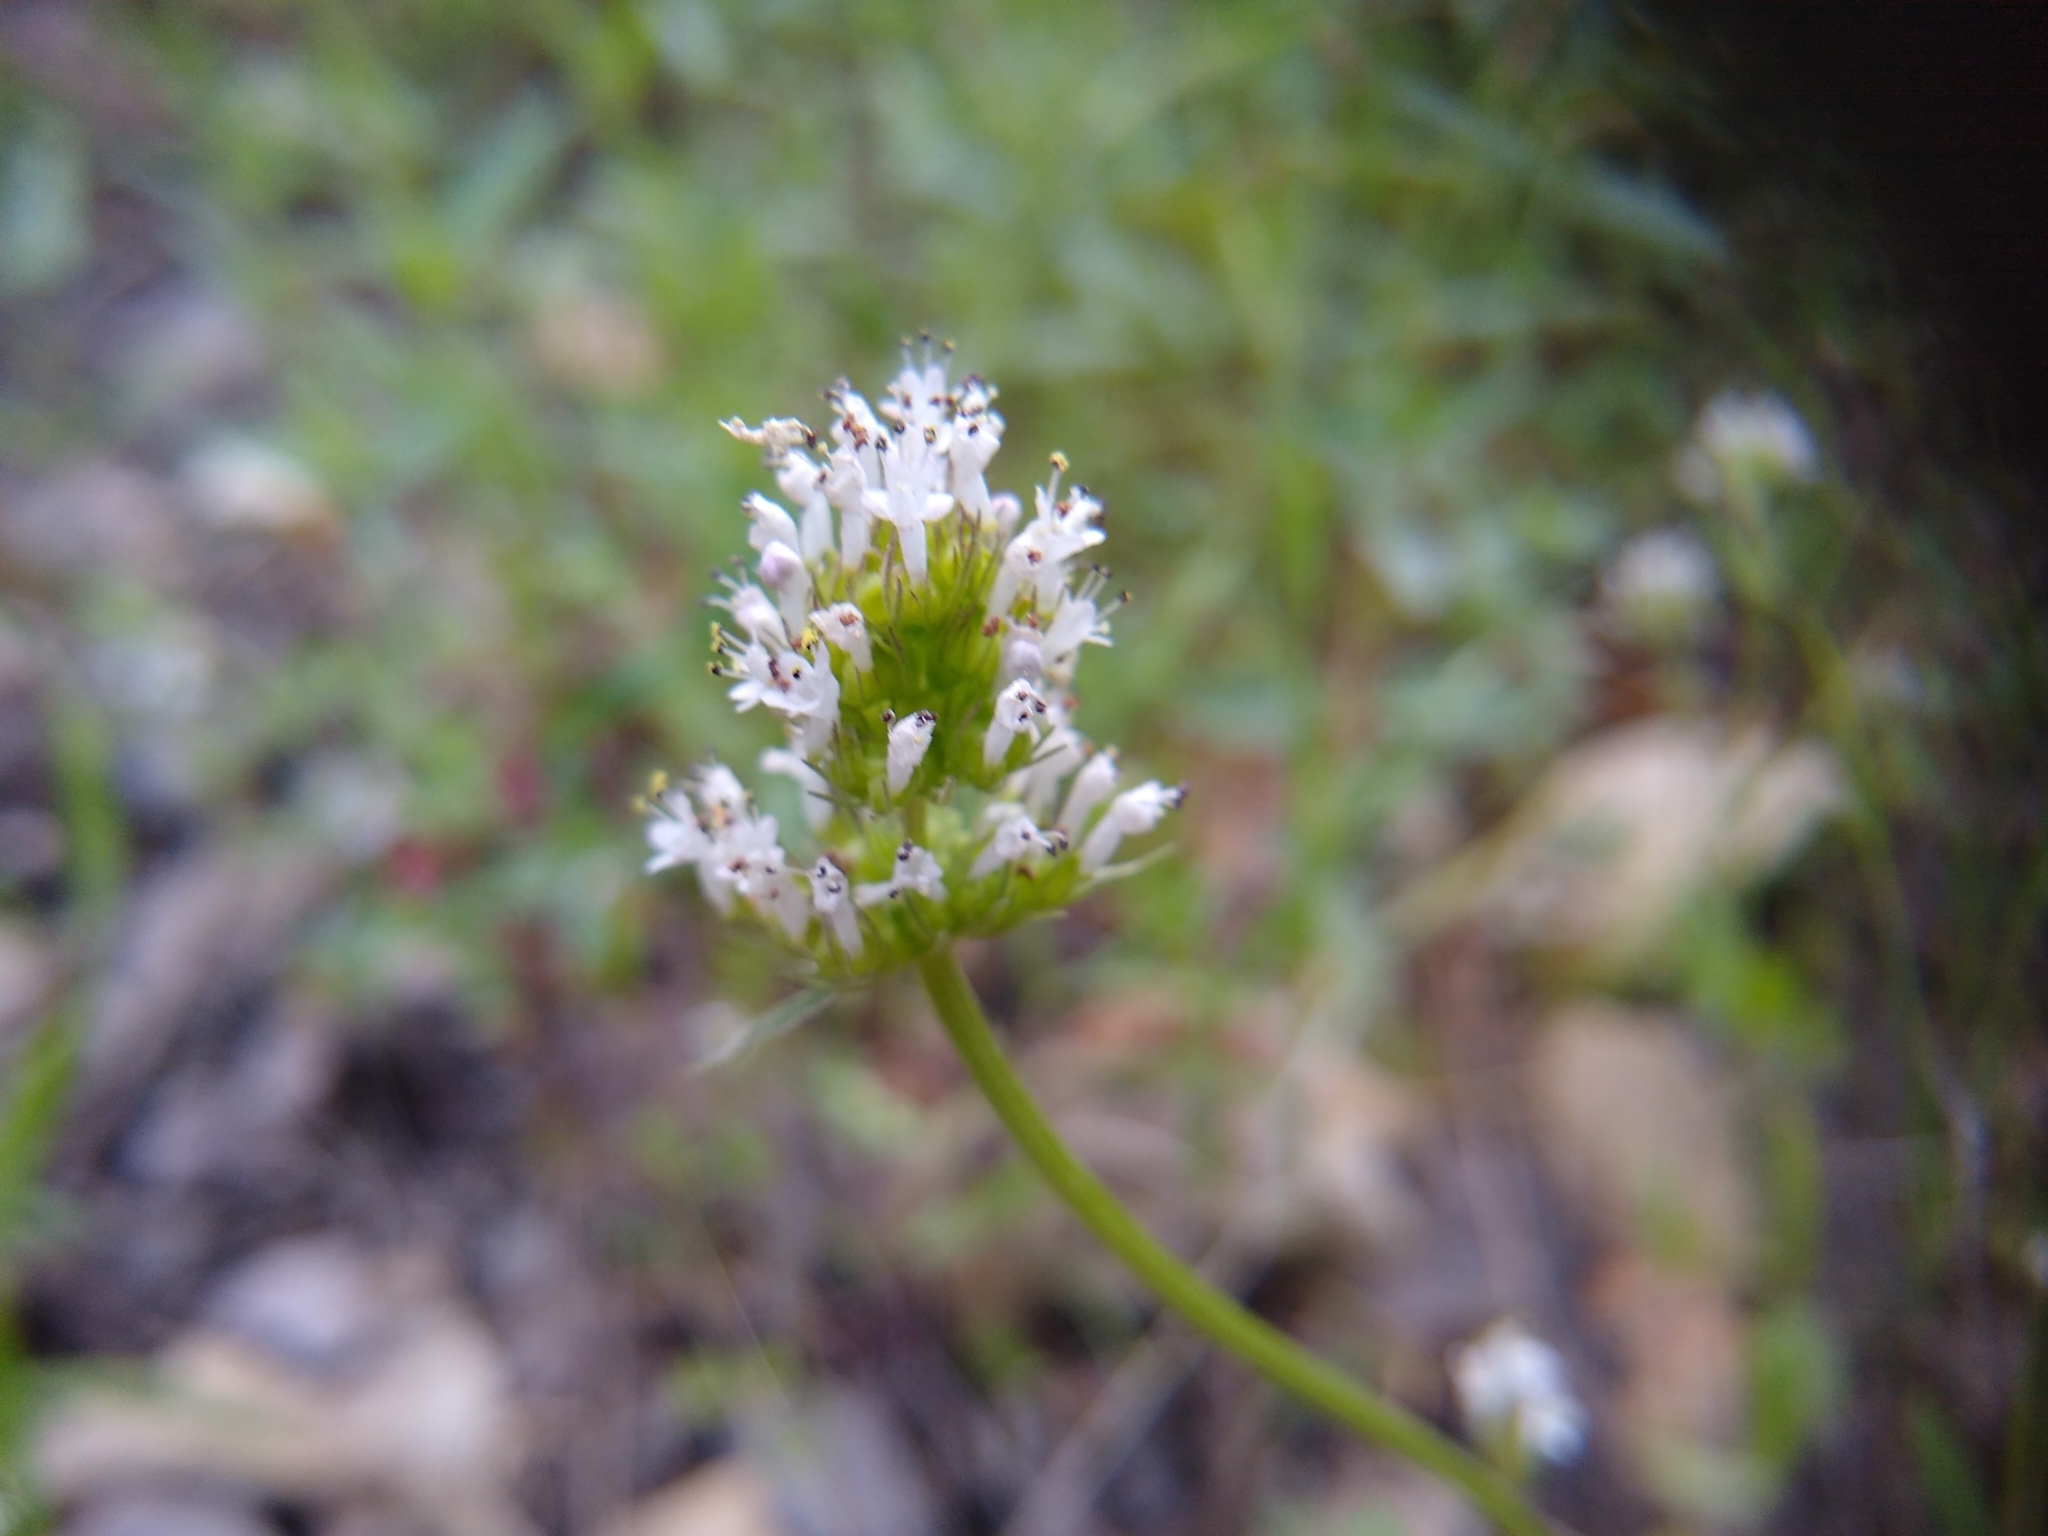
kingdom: Plantae
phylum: Tracheophyta
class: Magnoliopsida
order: Dipsacales
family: Caprifoliaceae
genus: Plectritis
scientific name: Plectritis macroptera
